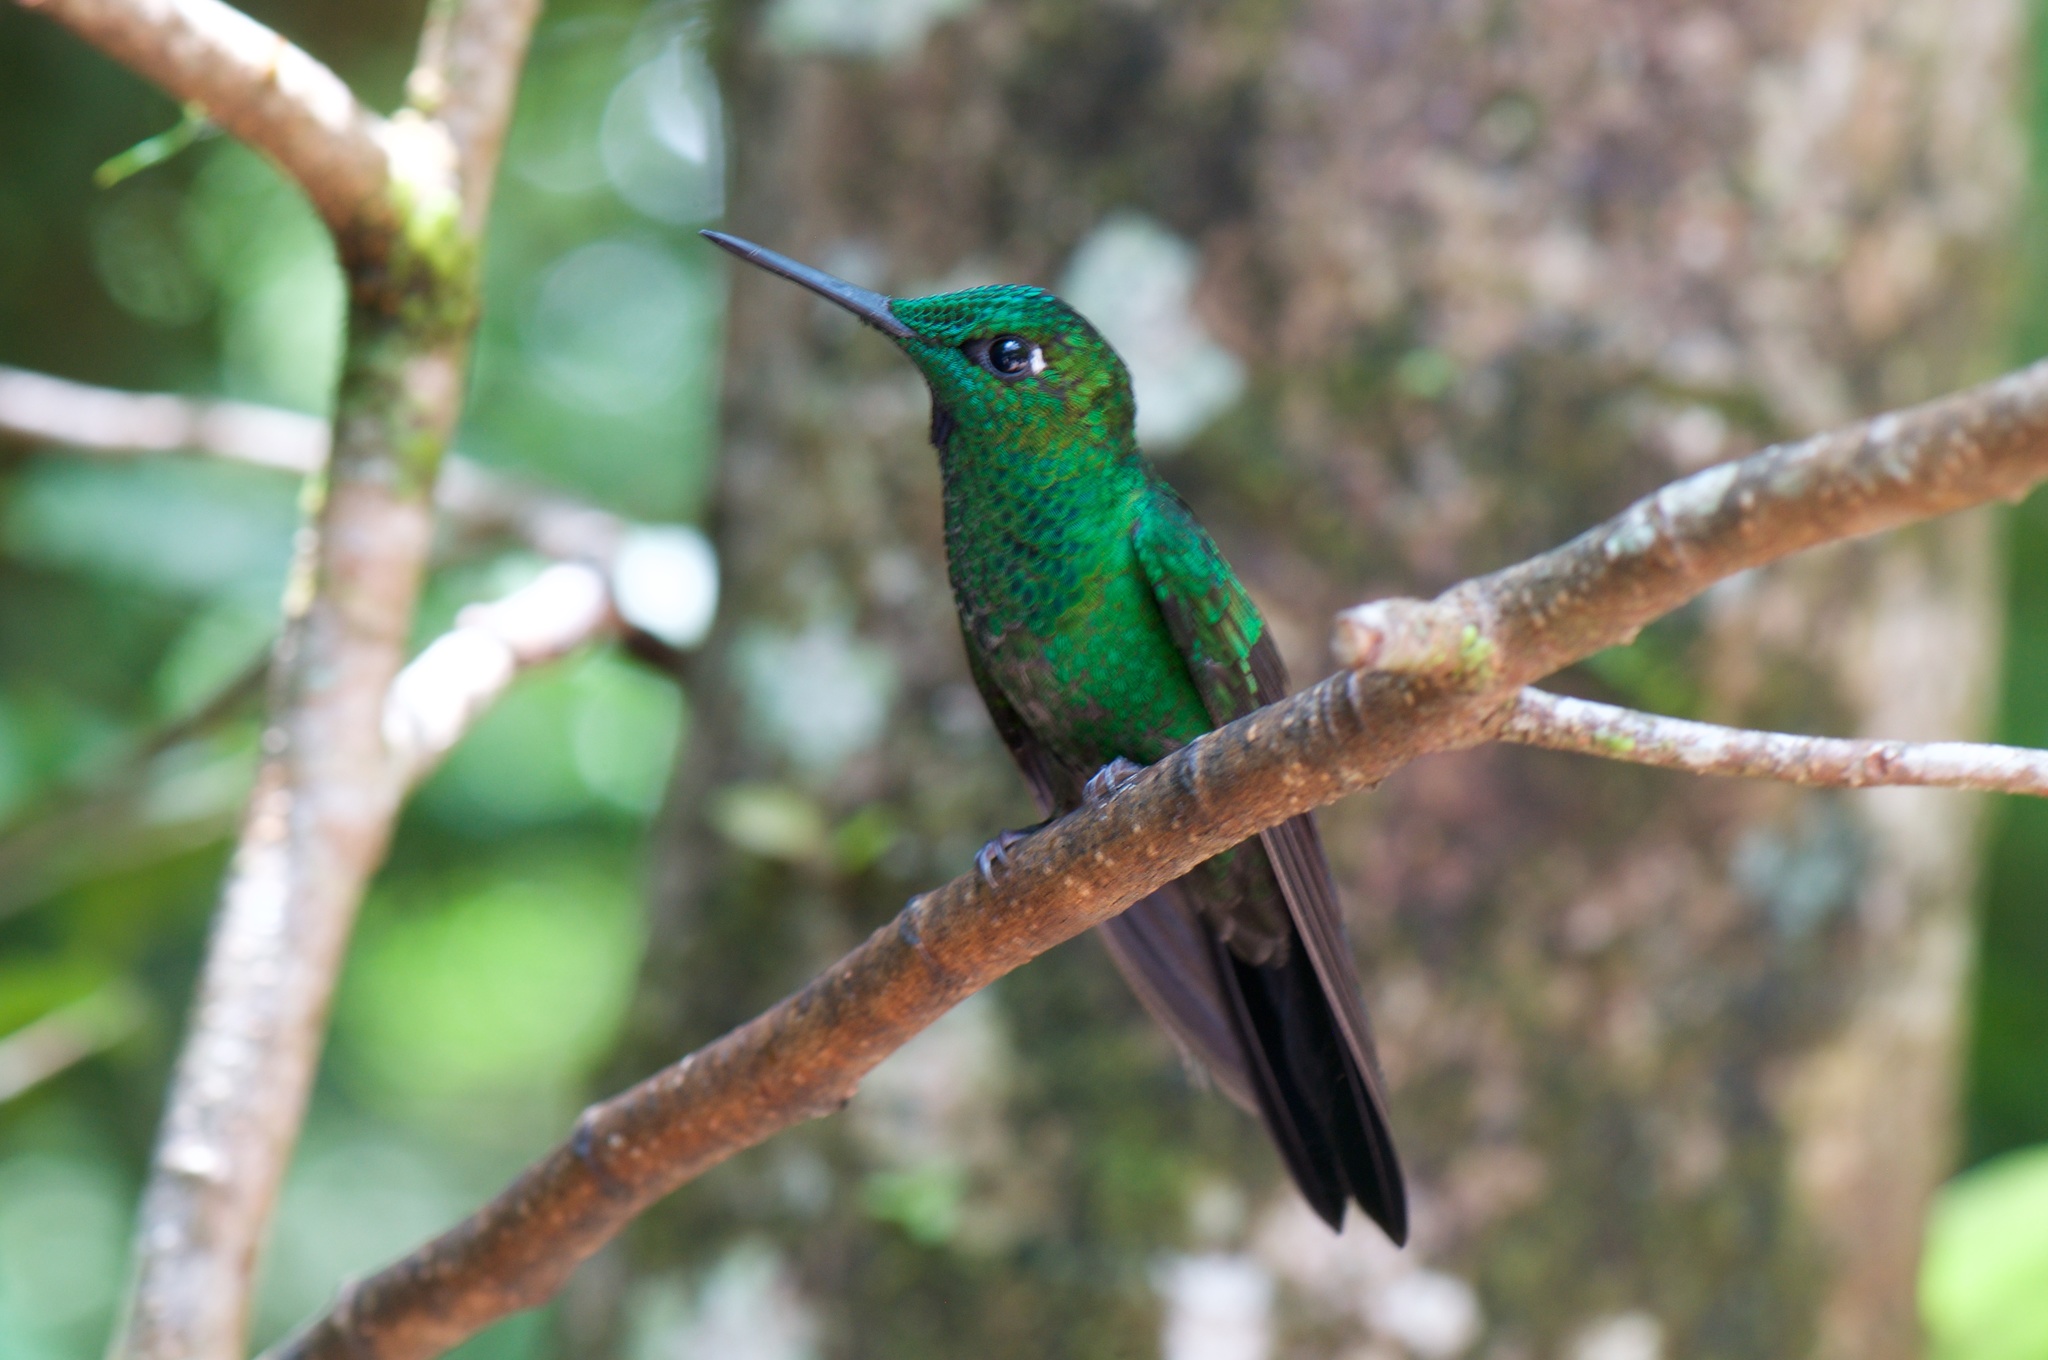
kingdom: Animalia
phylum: Chordata
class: Aves
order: Apodiformes
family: Trochilidae
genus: Heliodoxa
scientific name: Heliodoxa jacula
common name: Green-crowned brilliant
